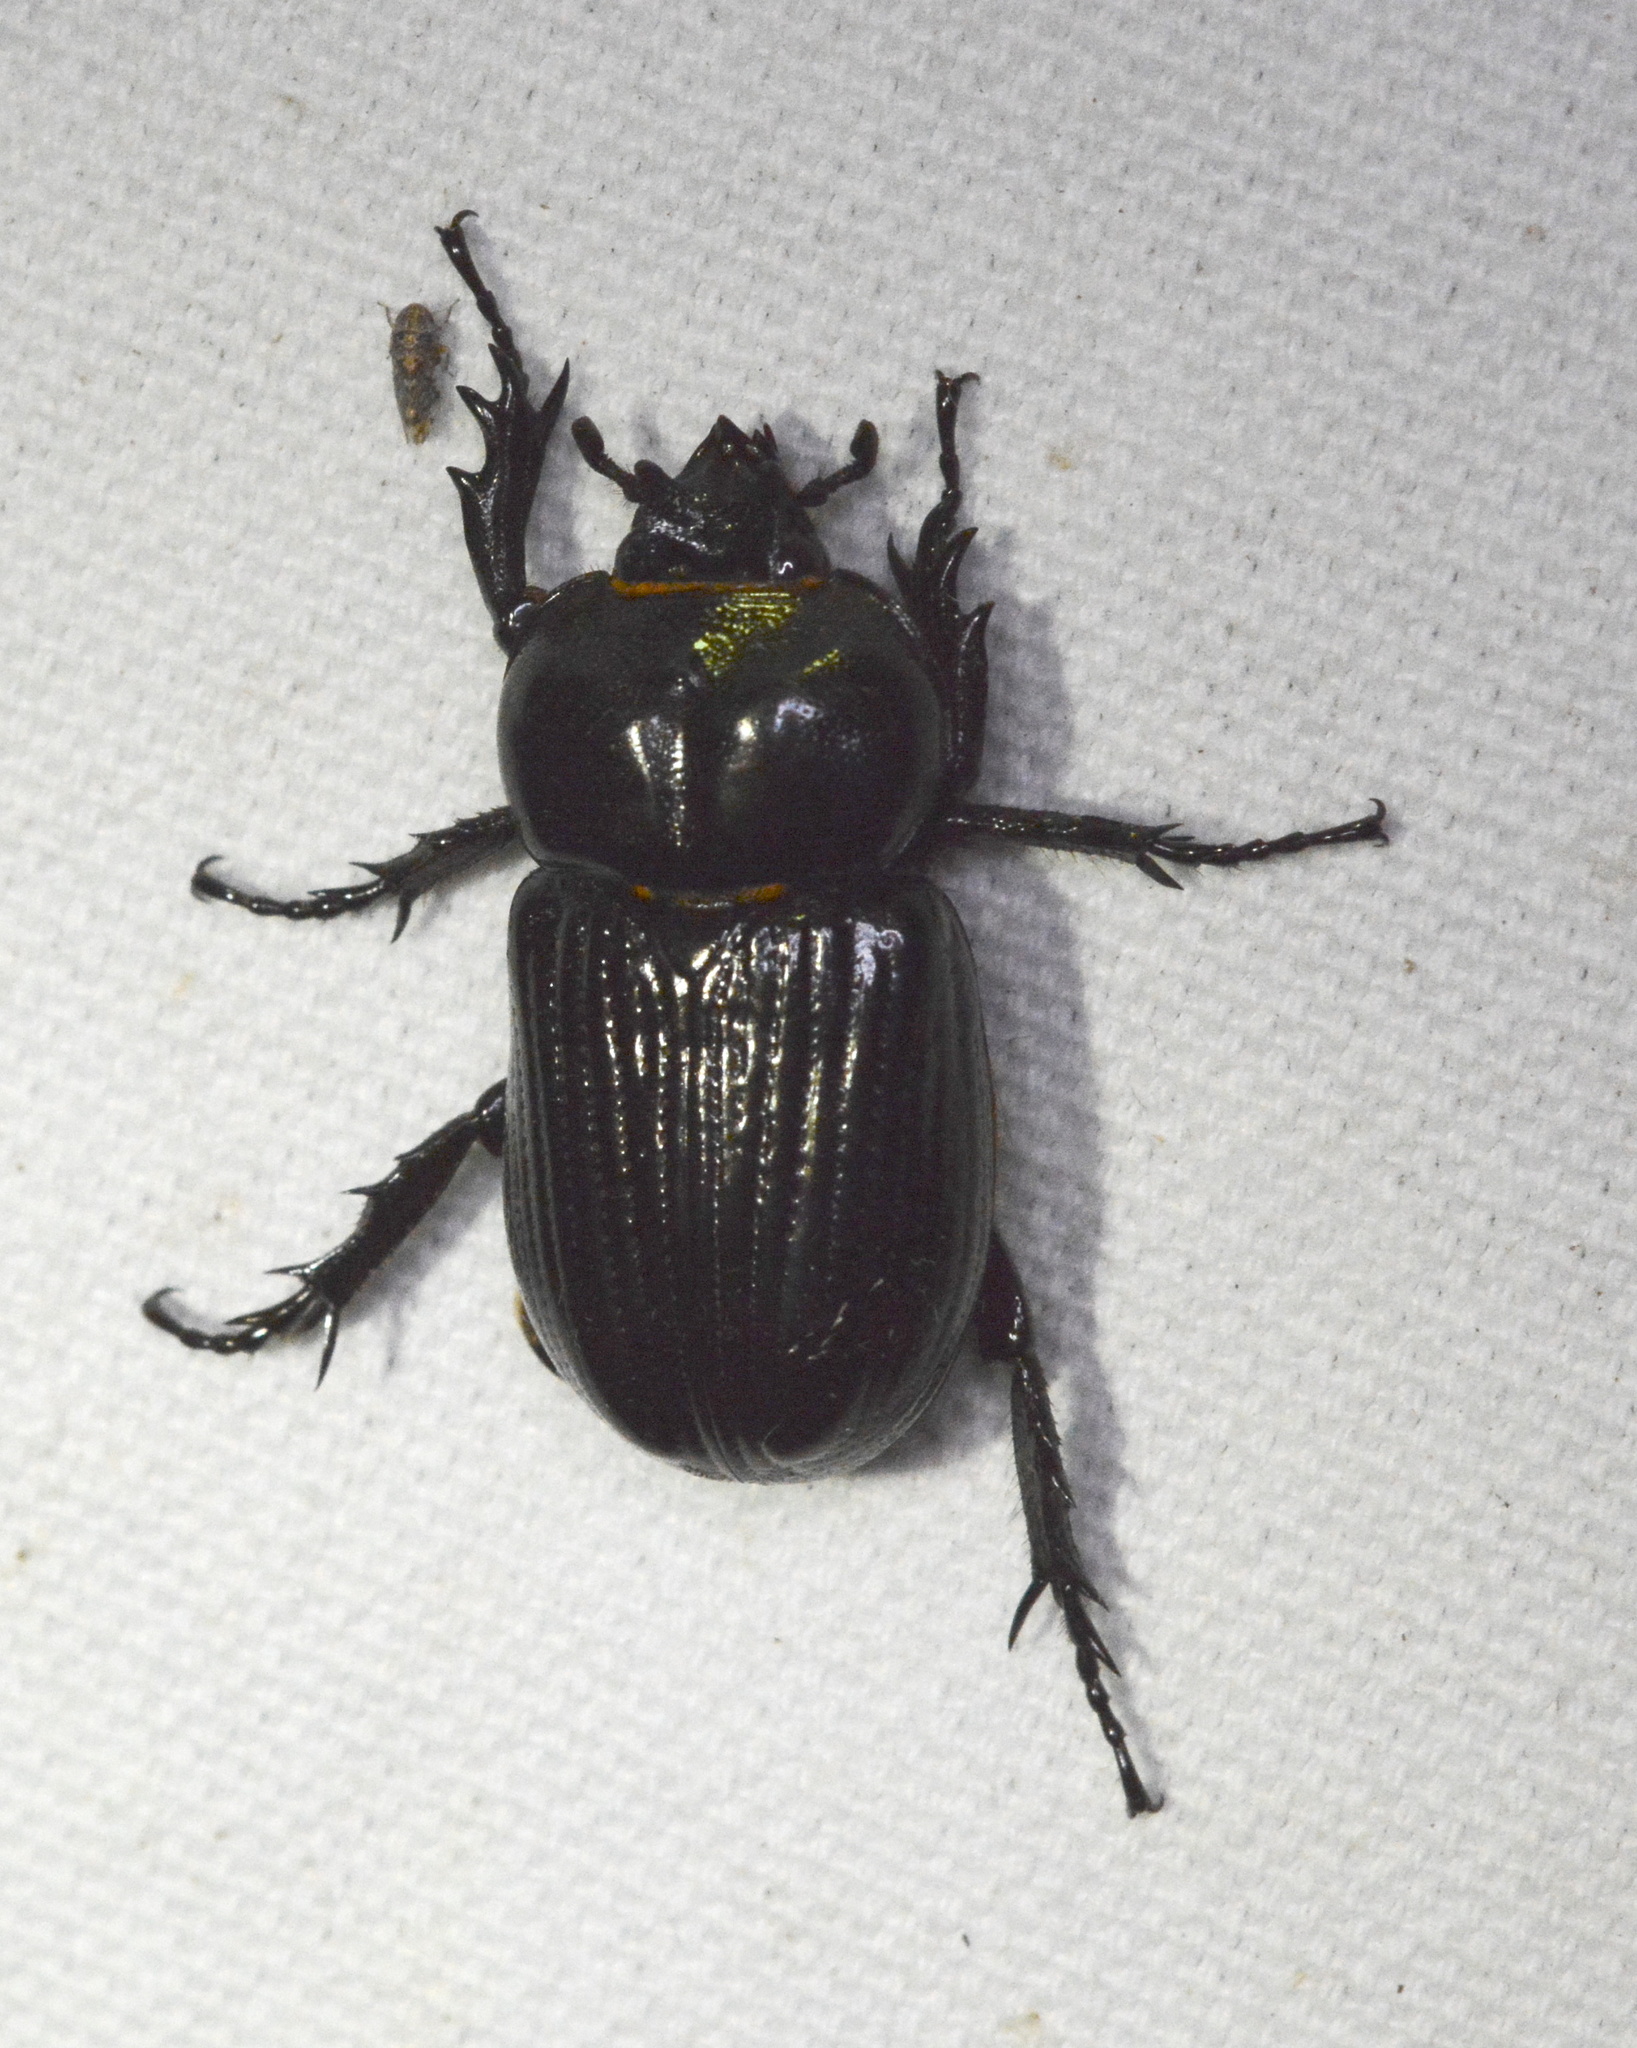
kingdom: Animalia
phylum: Arthropoda
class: Insecta
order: Coleoptera
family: Scarabaeidae
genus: Phileurus
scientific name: Phileurus truncatus
